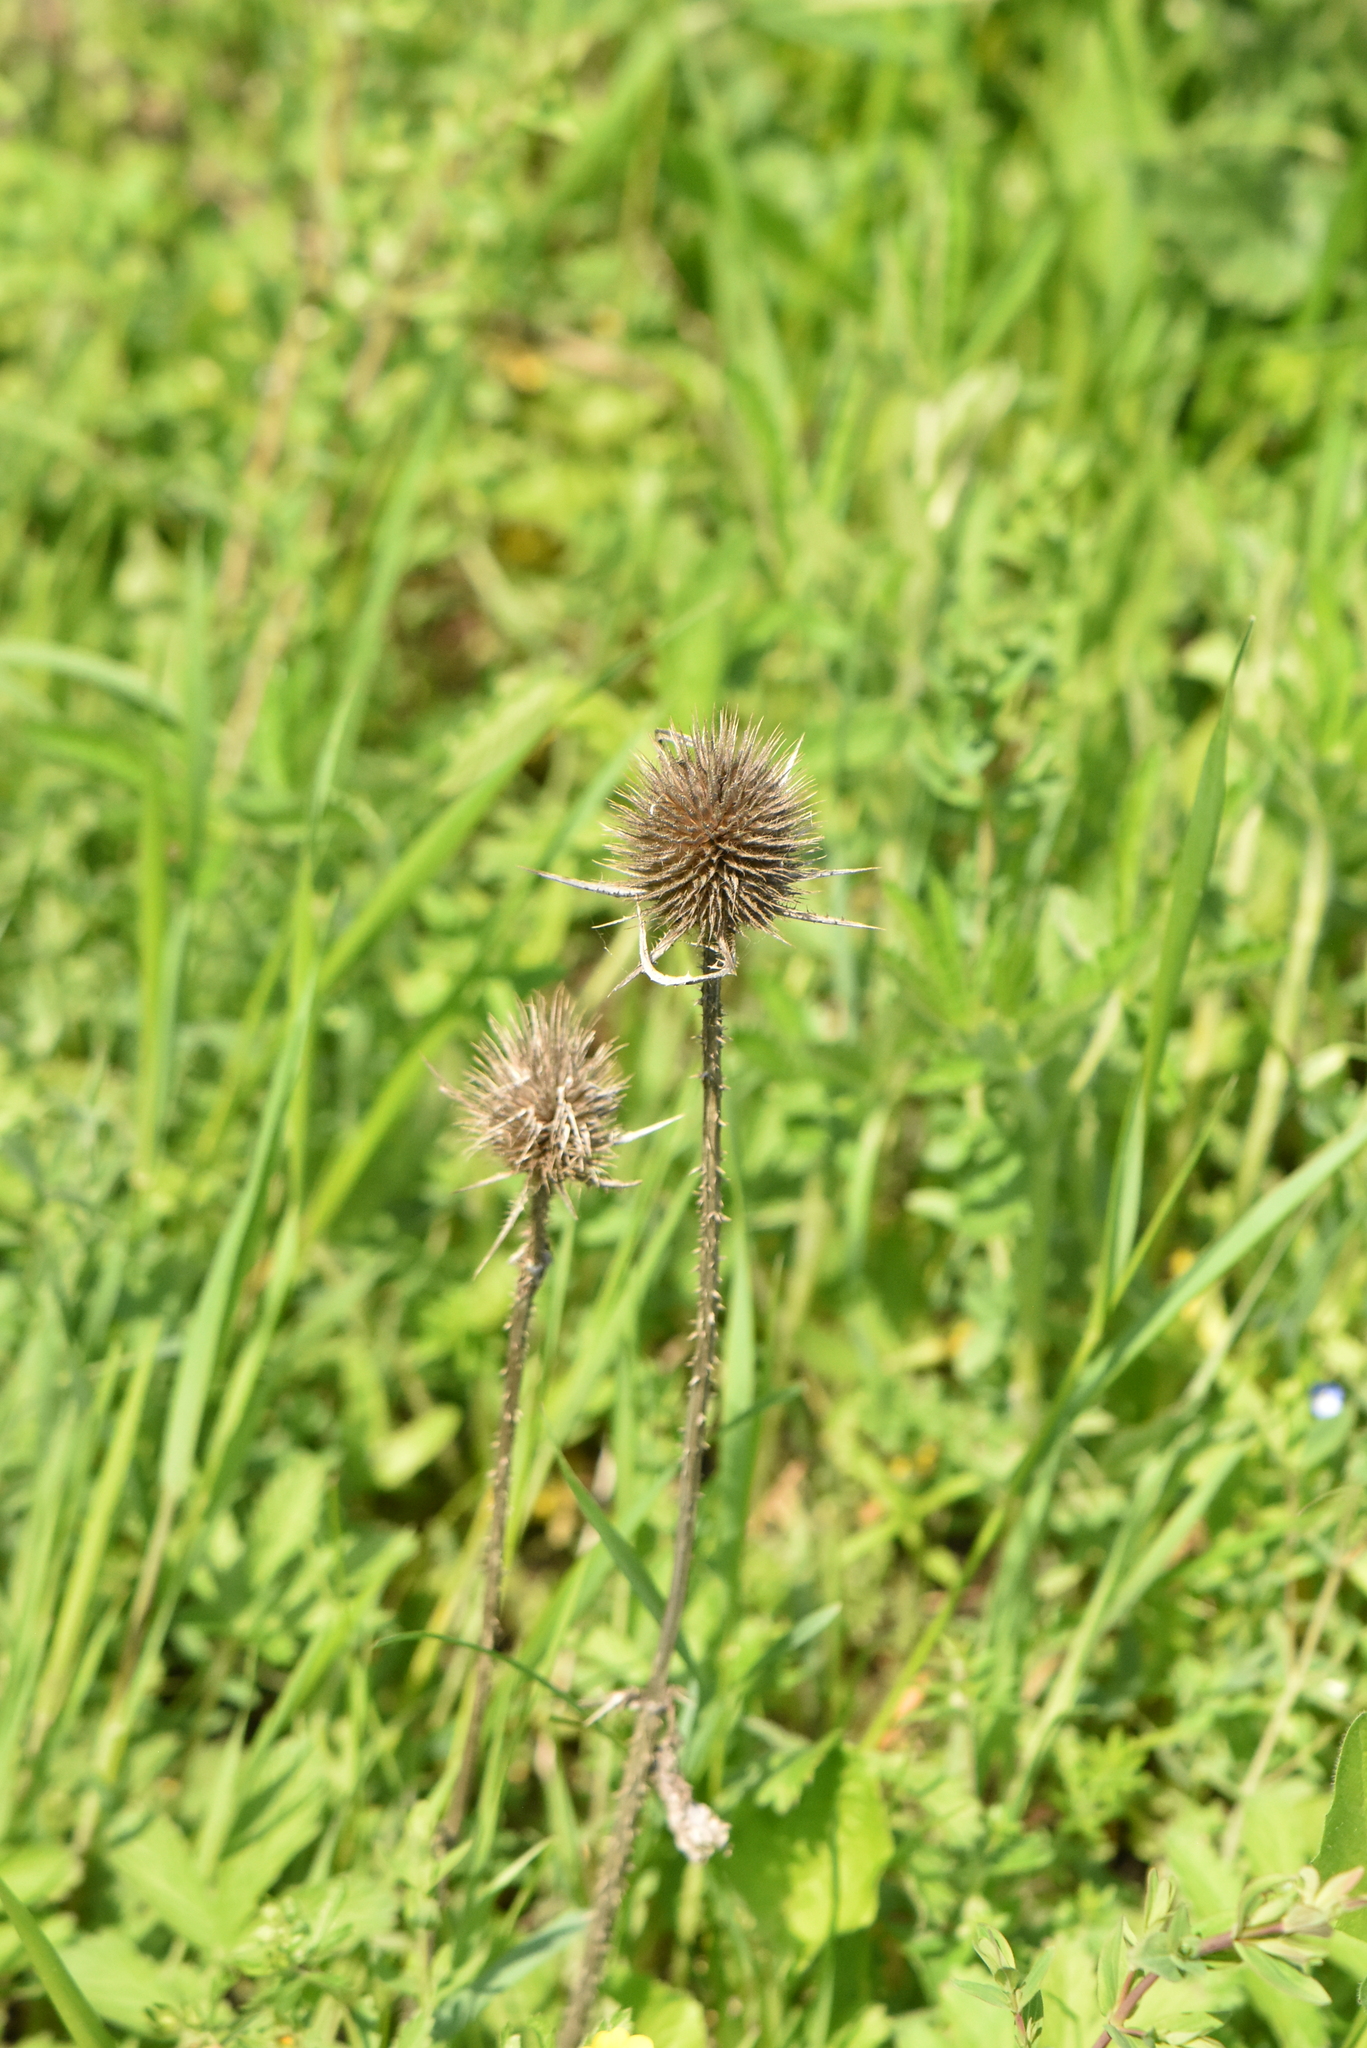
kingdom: Plantae
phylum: Tracheophyta
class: Magnoliopsida
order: Dipsacales
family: Caprifoliaceae
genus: Dipsacus
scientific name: Dipsacus laciniatus
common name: Cut-leaved teasel
